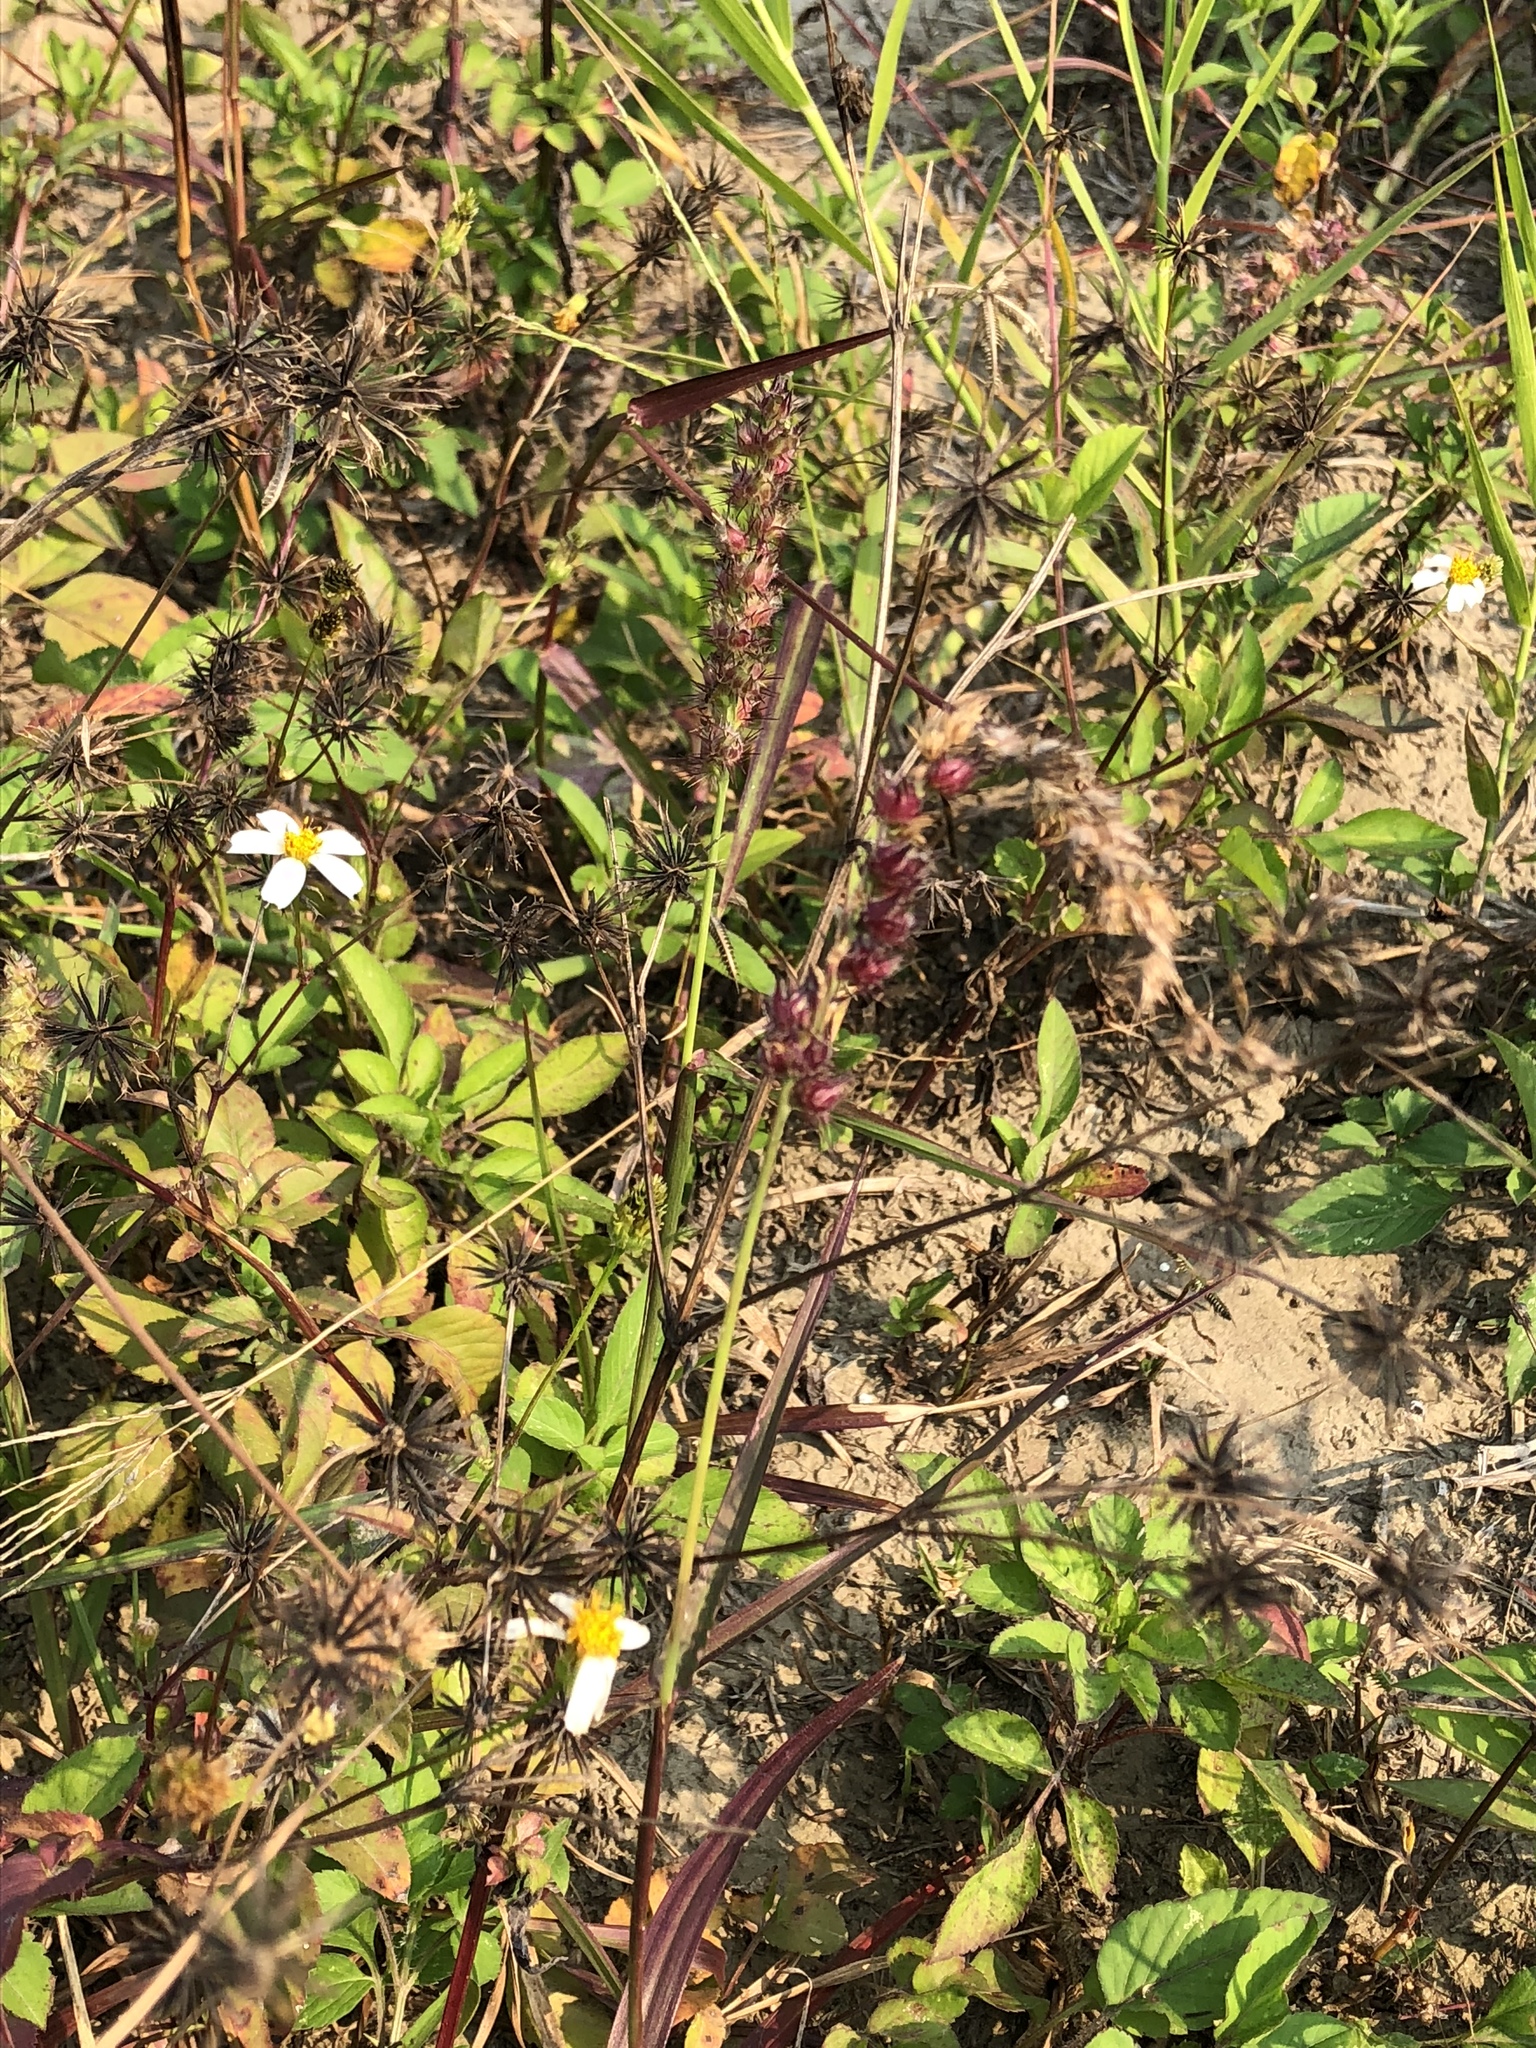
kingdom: Plantae
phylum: Tracheophyta
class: Liliopsida
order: Poales
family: Poaceae
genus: Cenchrus
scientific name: Cenchrus echinatus
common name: Southern sandbur
